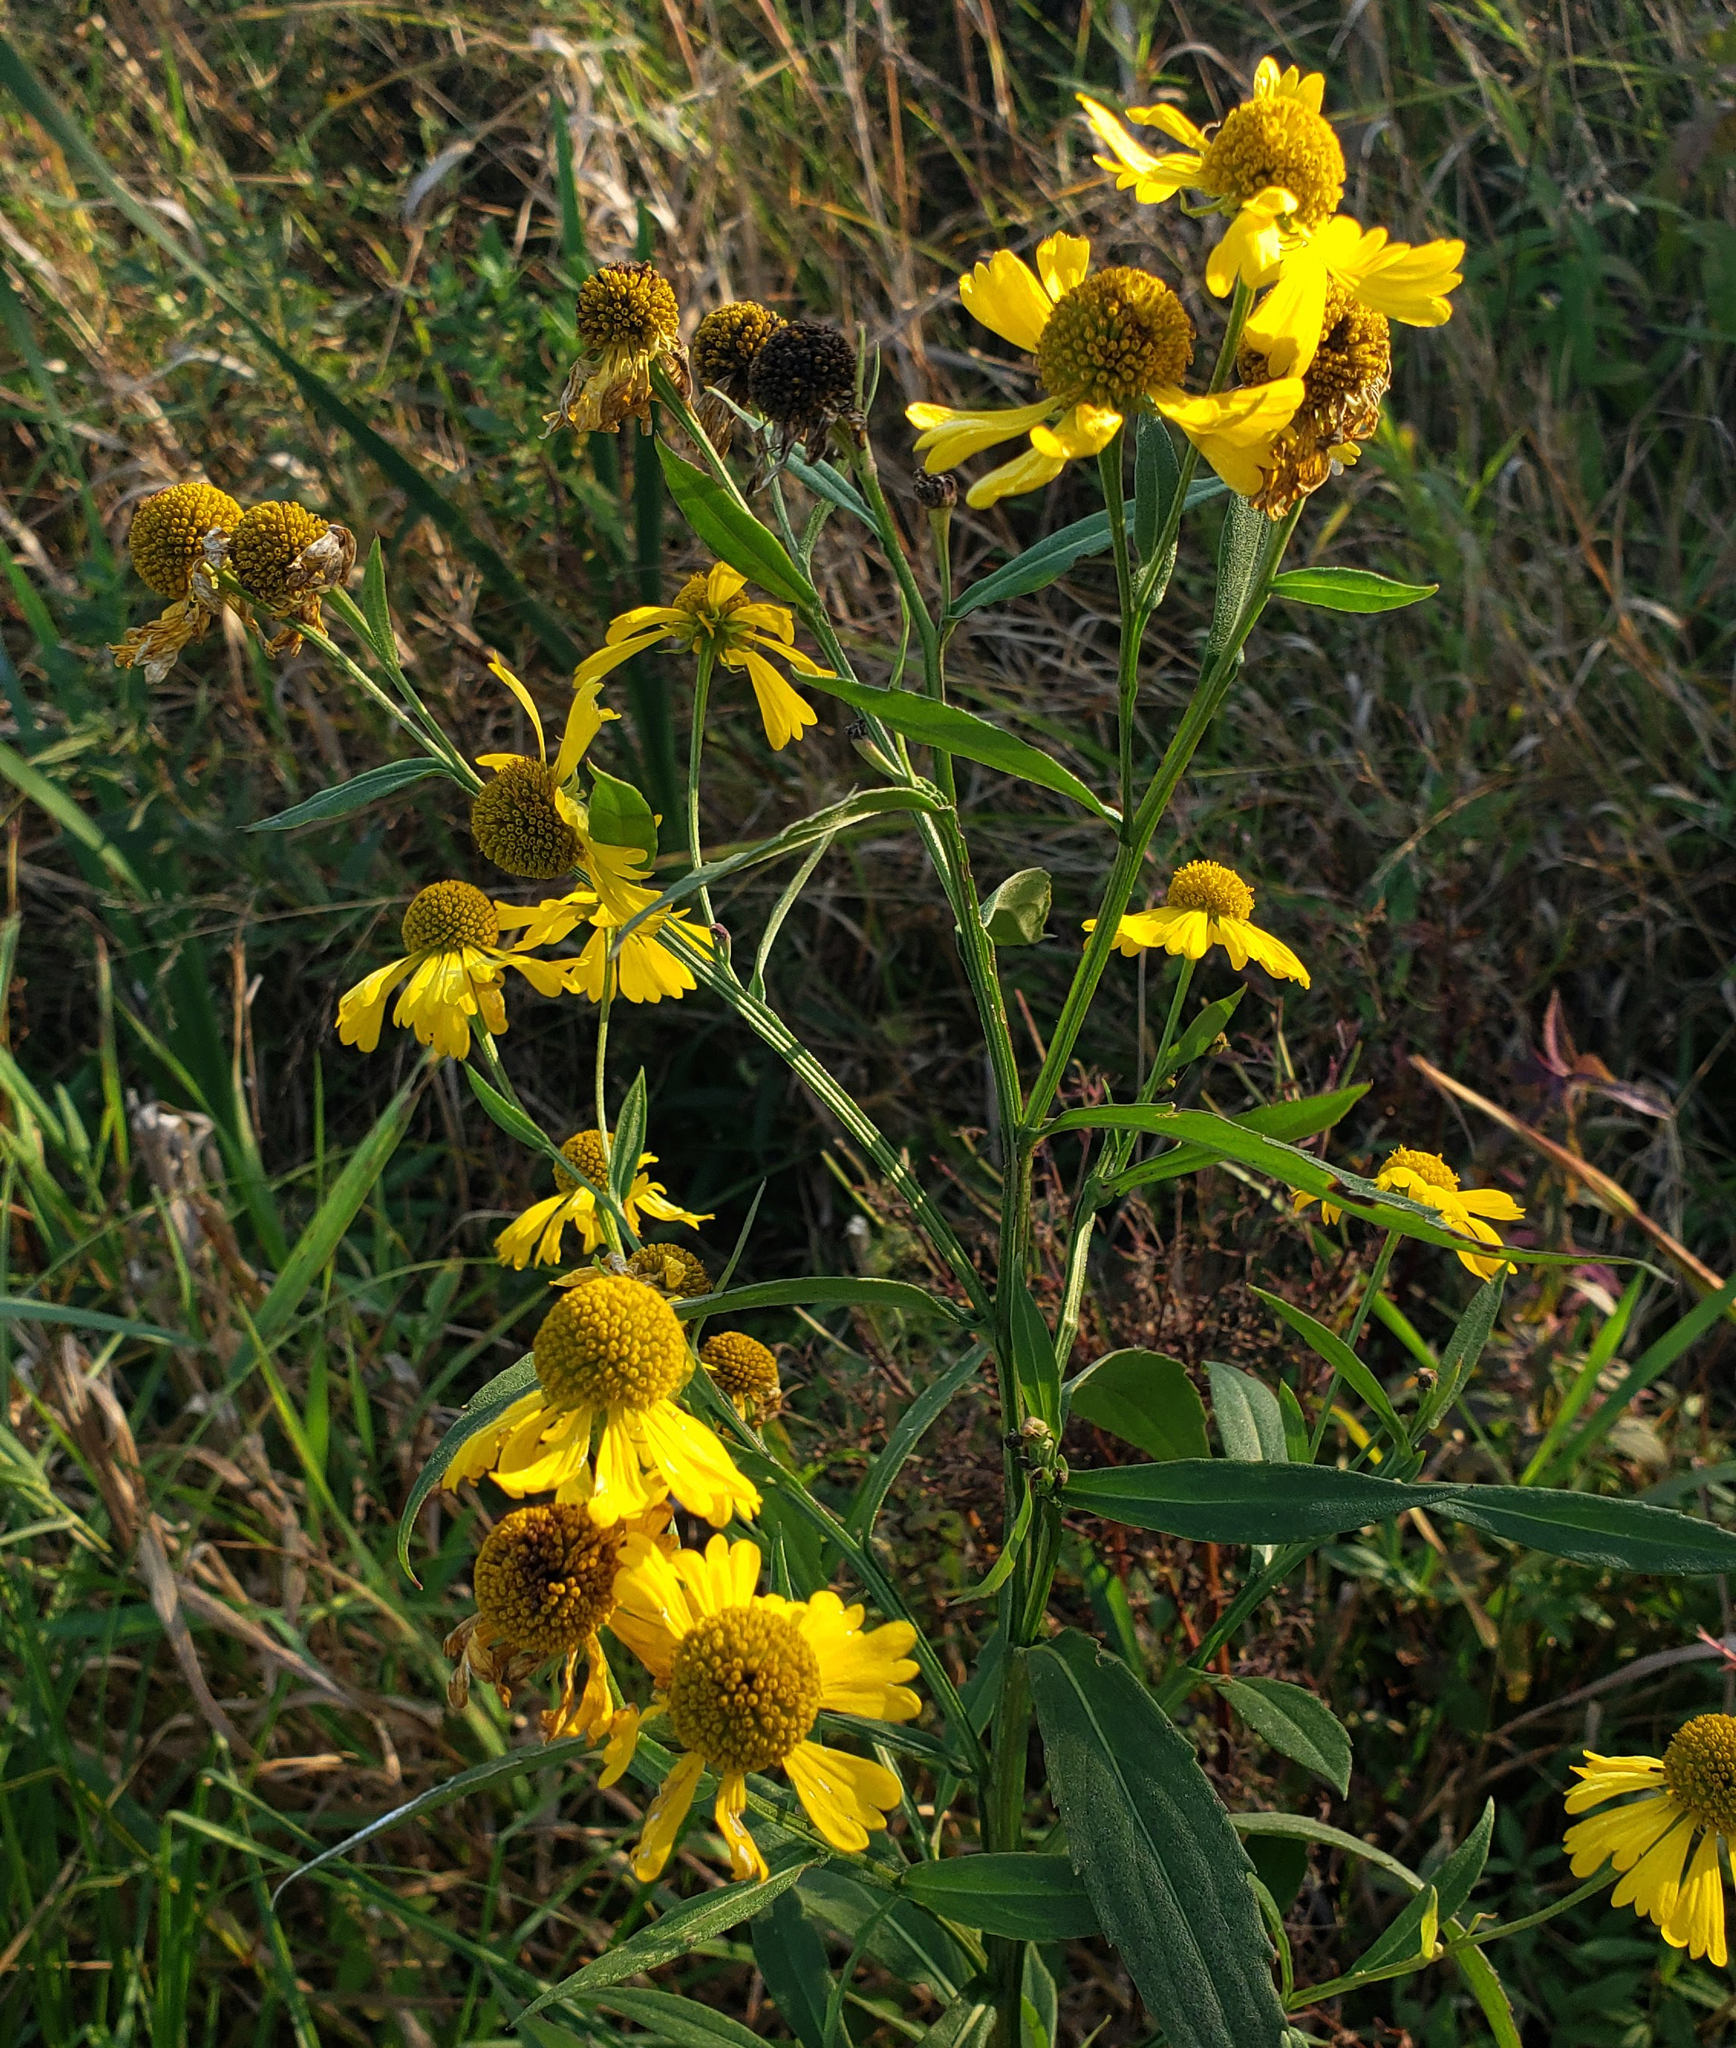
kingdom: Plantae
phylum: Tracheophyta
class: Magnoliopsida
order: Asterales
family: Asteraceae
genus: Helenium
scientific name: Helenium autumnale
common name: Sneezeweed
